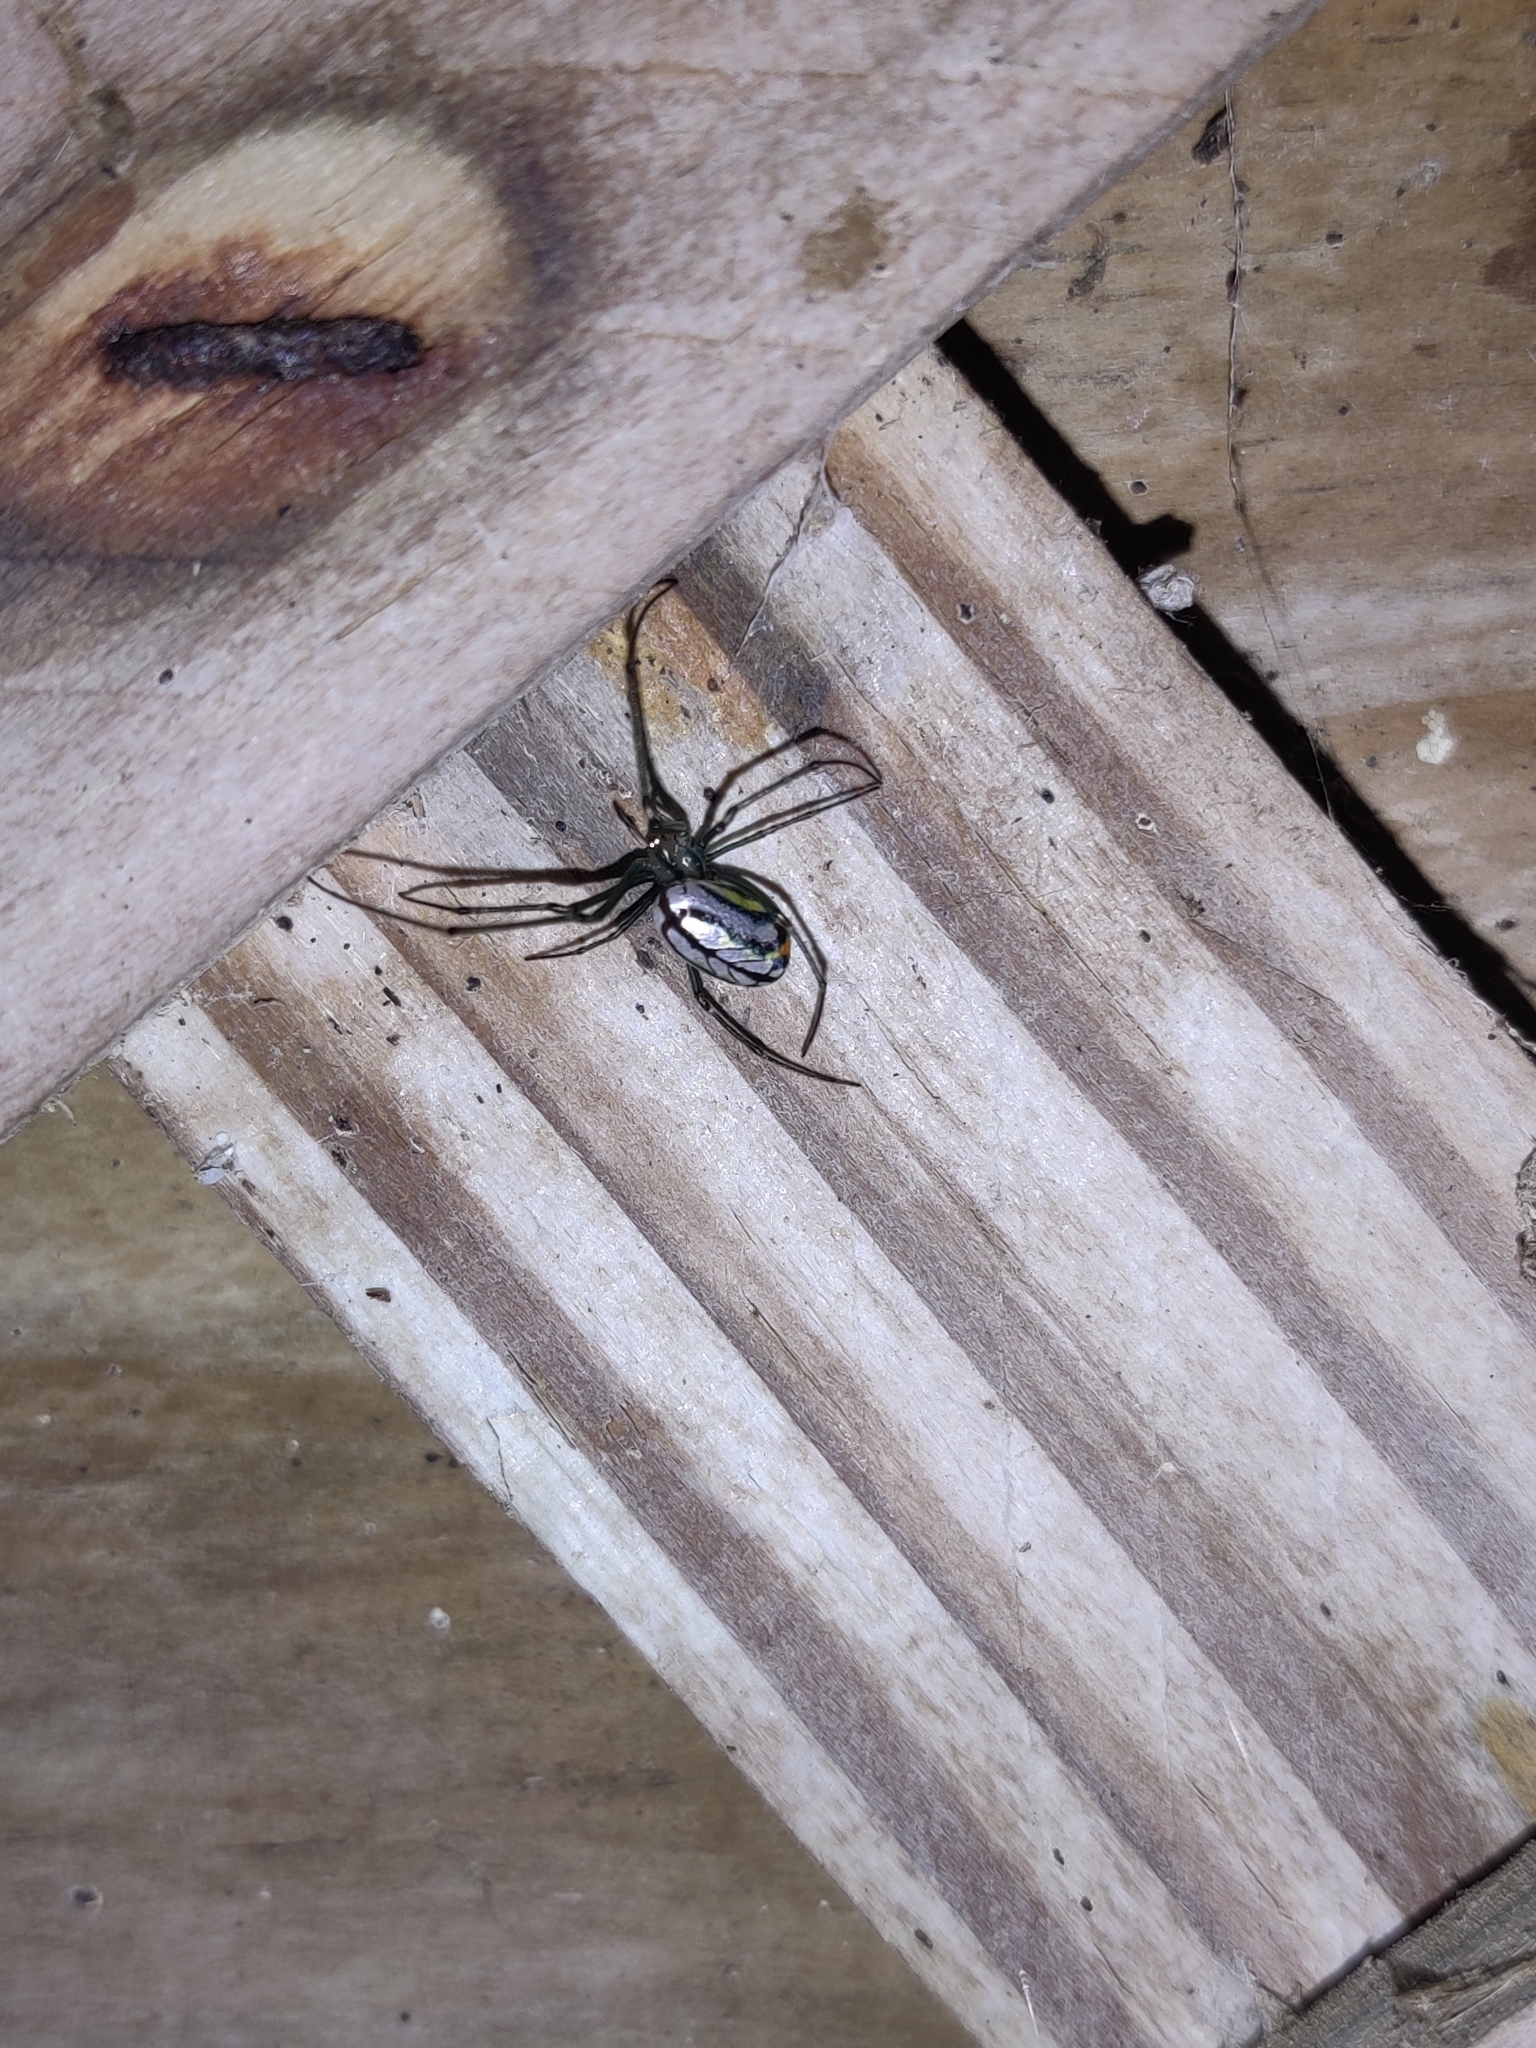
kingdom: Animalia
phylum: Arthropoda
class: Arachnida
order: Araneae
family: Tetragnathidae
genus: Leucauge
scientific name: Leucauge argyrobapta
